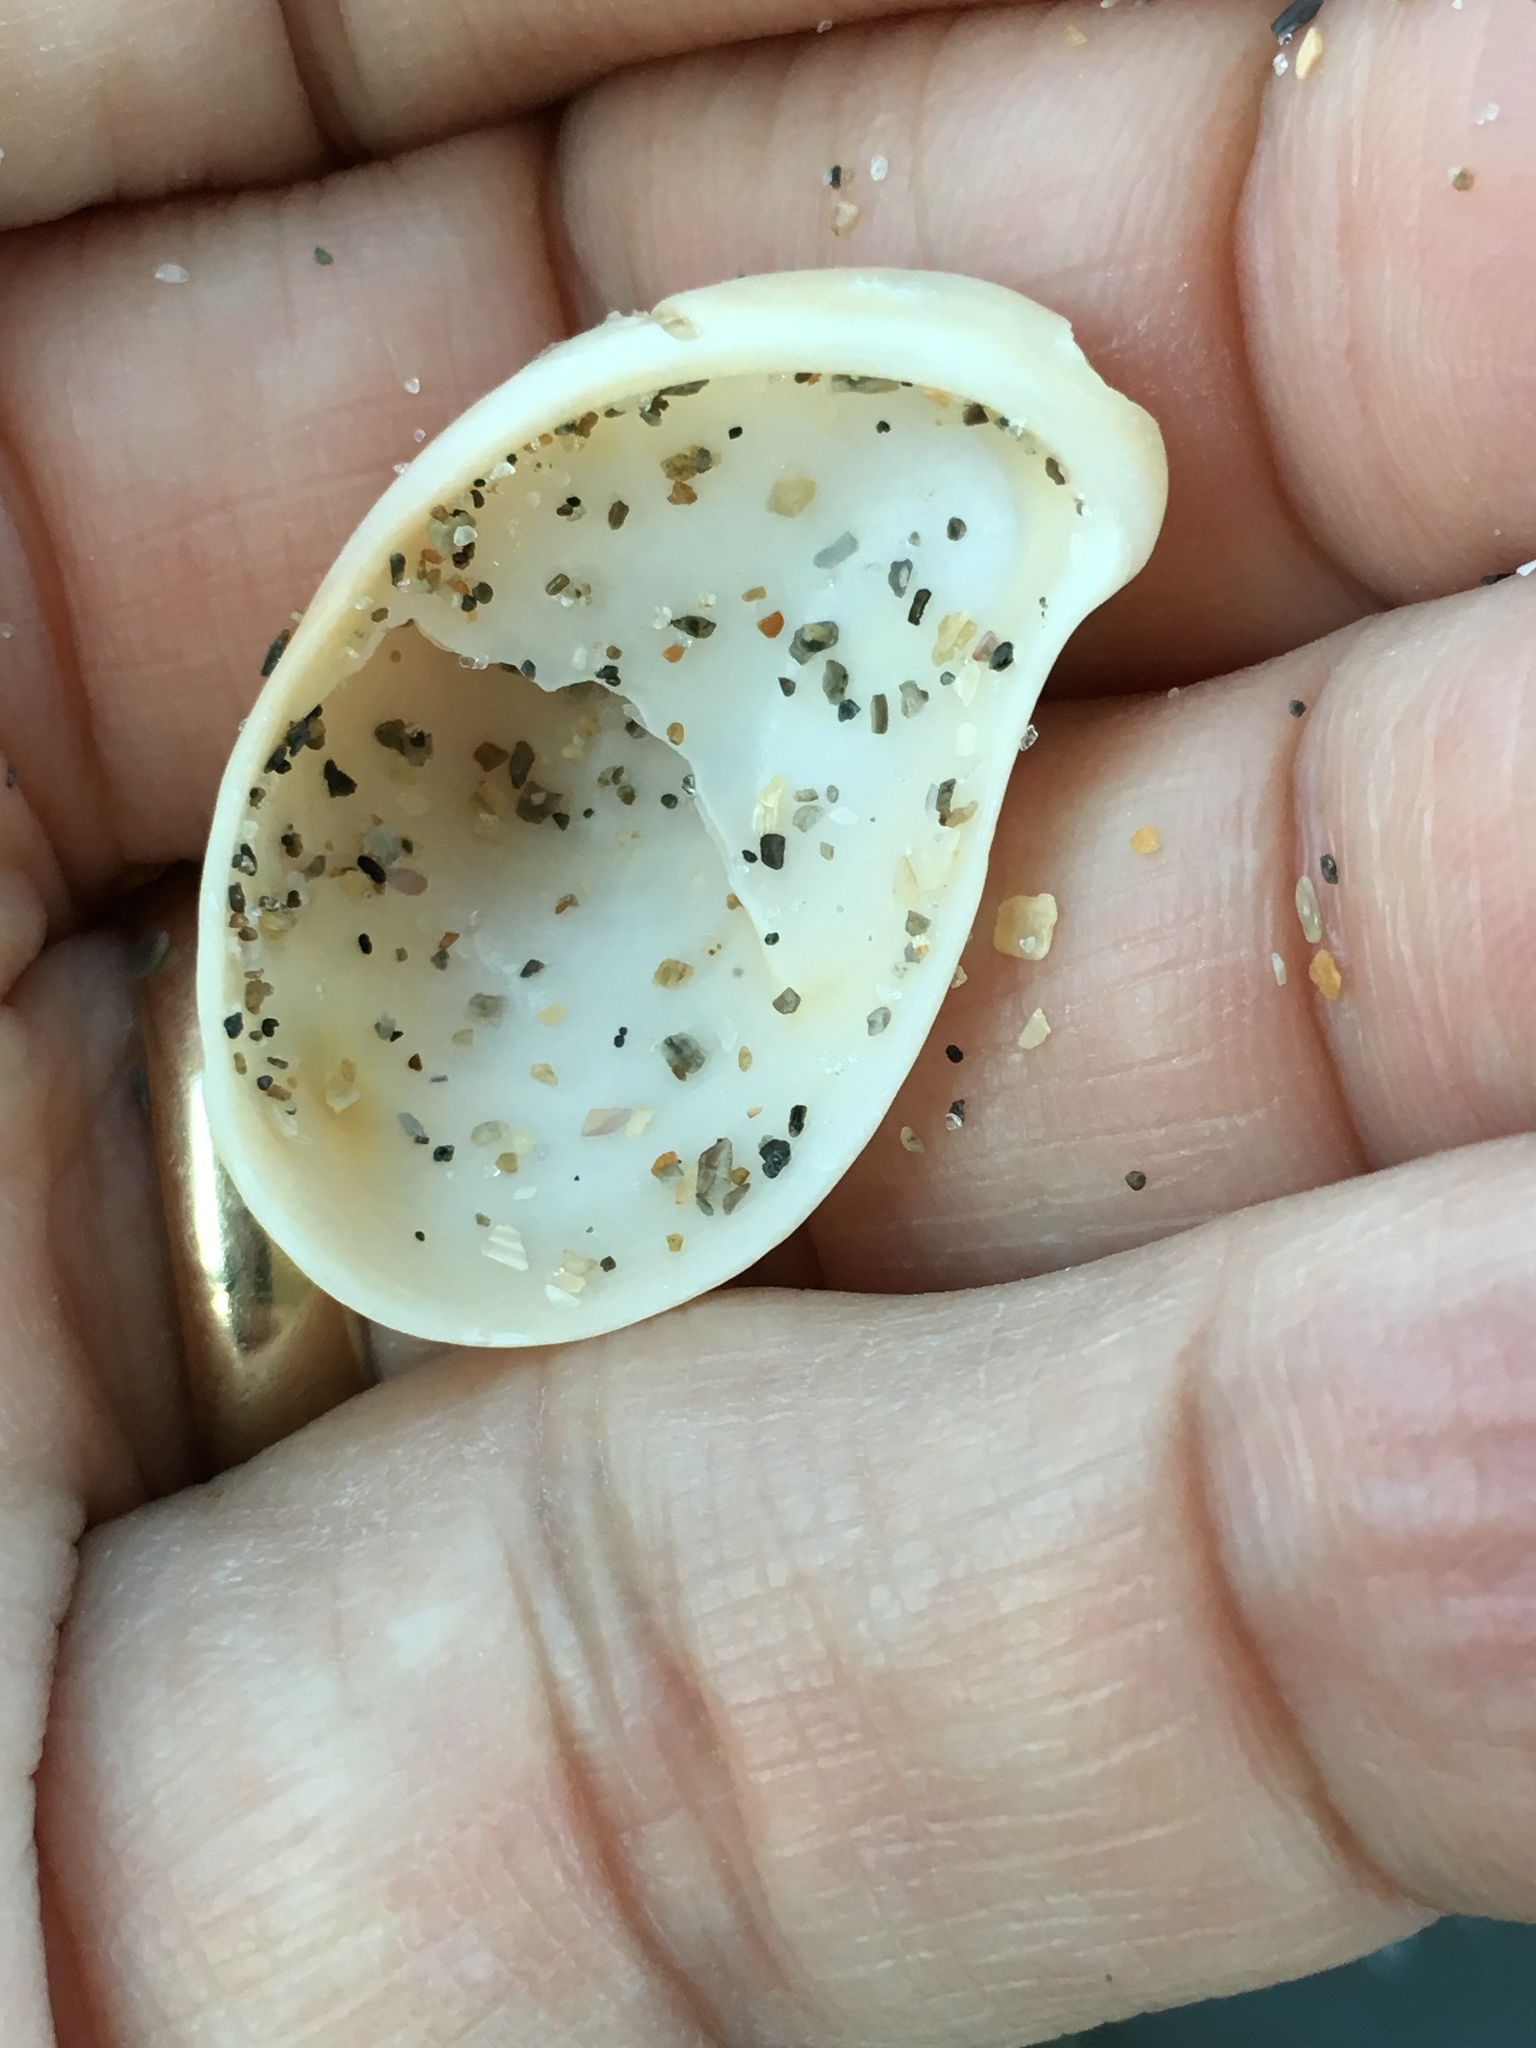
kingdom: Animalia
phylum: Mollusca
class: Gastropoda
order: Littorinimorpha
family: Calyptraeidae
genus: Crepidula
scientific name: Crepidula fornicata
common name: Slipper limpet
